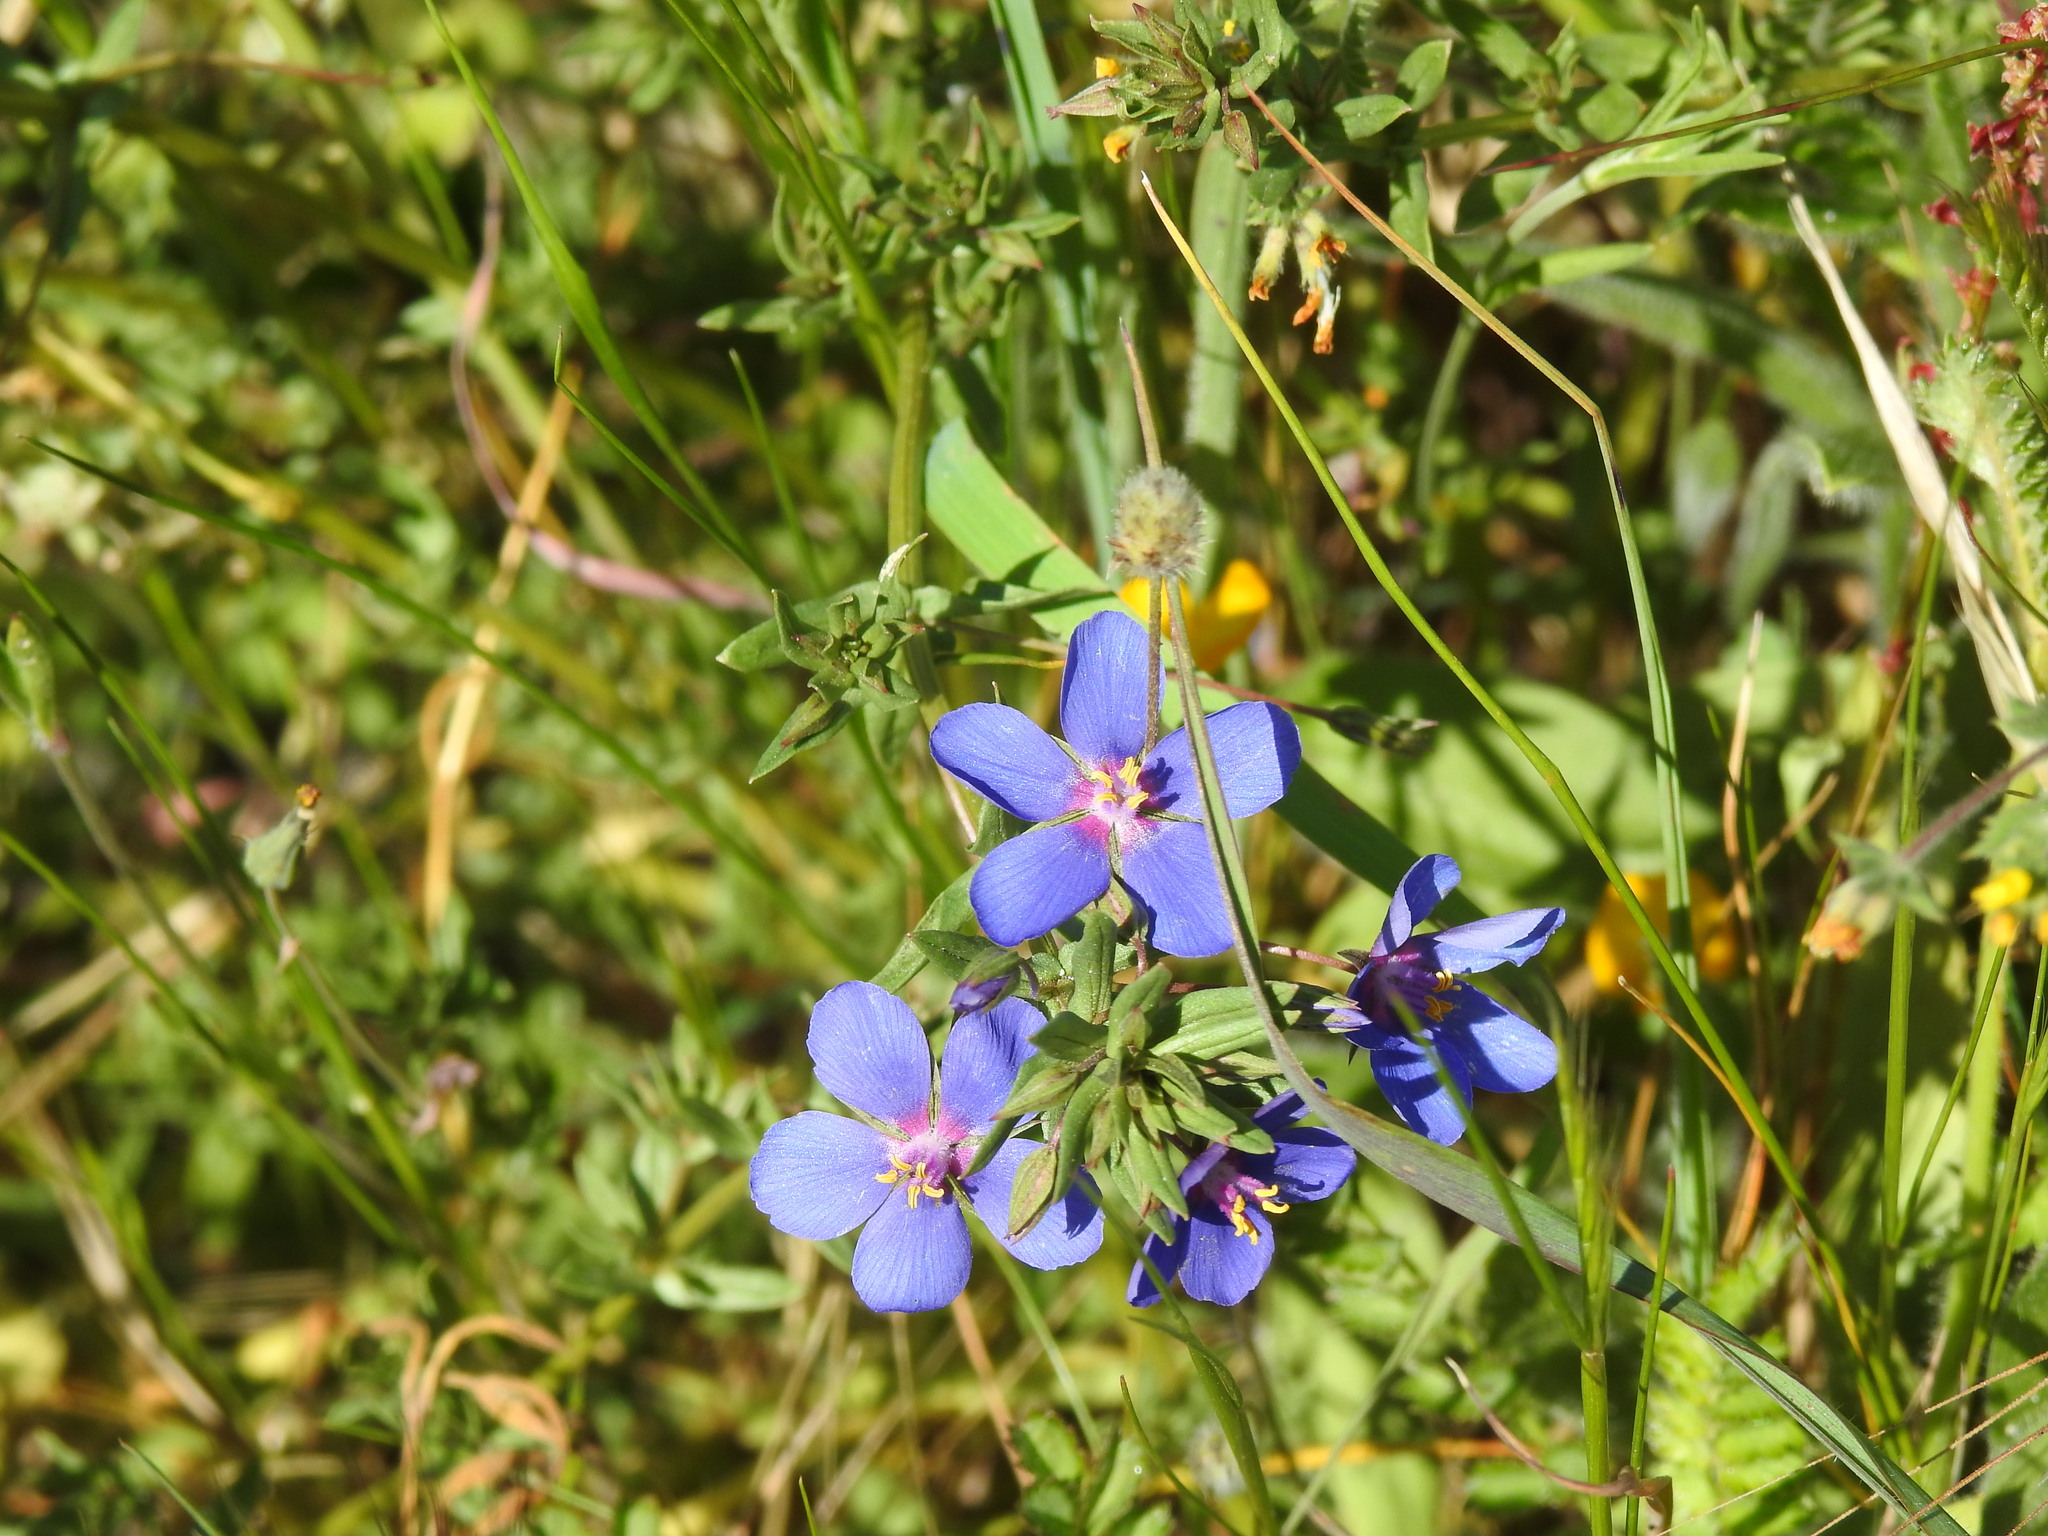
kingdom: Plantae
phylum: Tracheophyta
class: Magnoliopsida
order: Ericales
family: Primulaceae
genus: Lysimachia
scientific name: Lysimachia monelli
